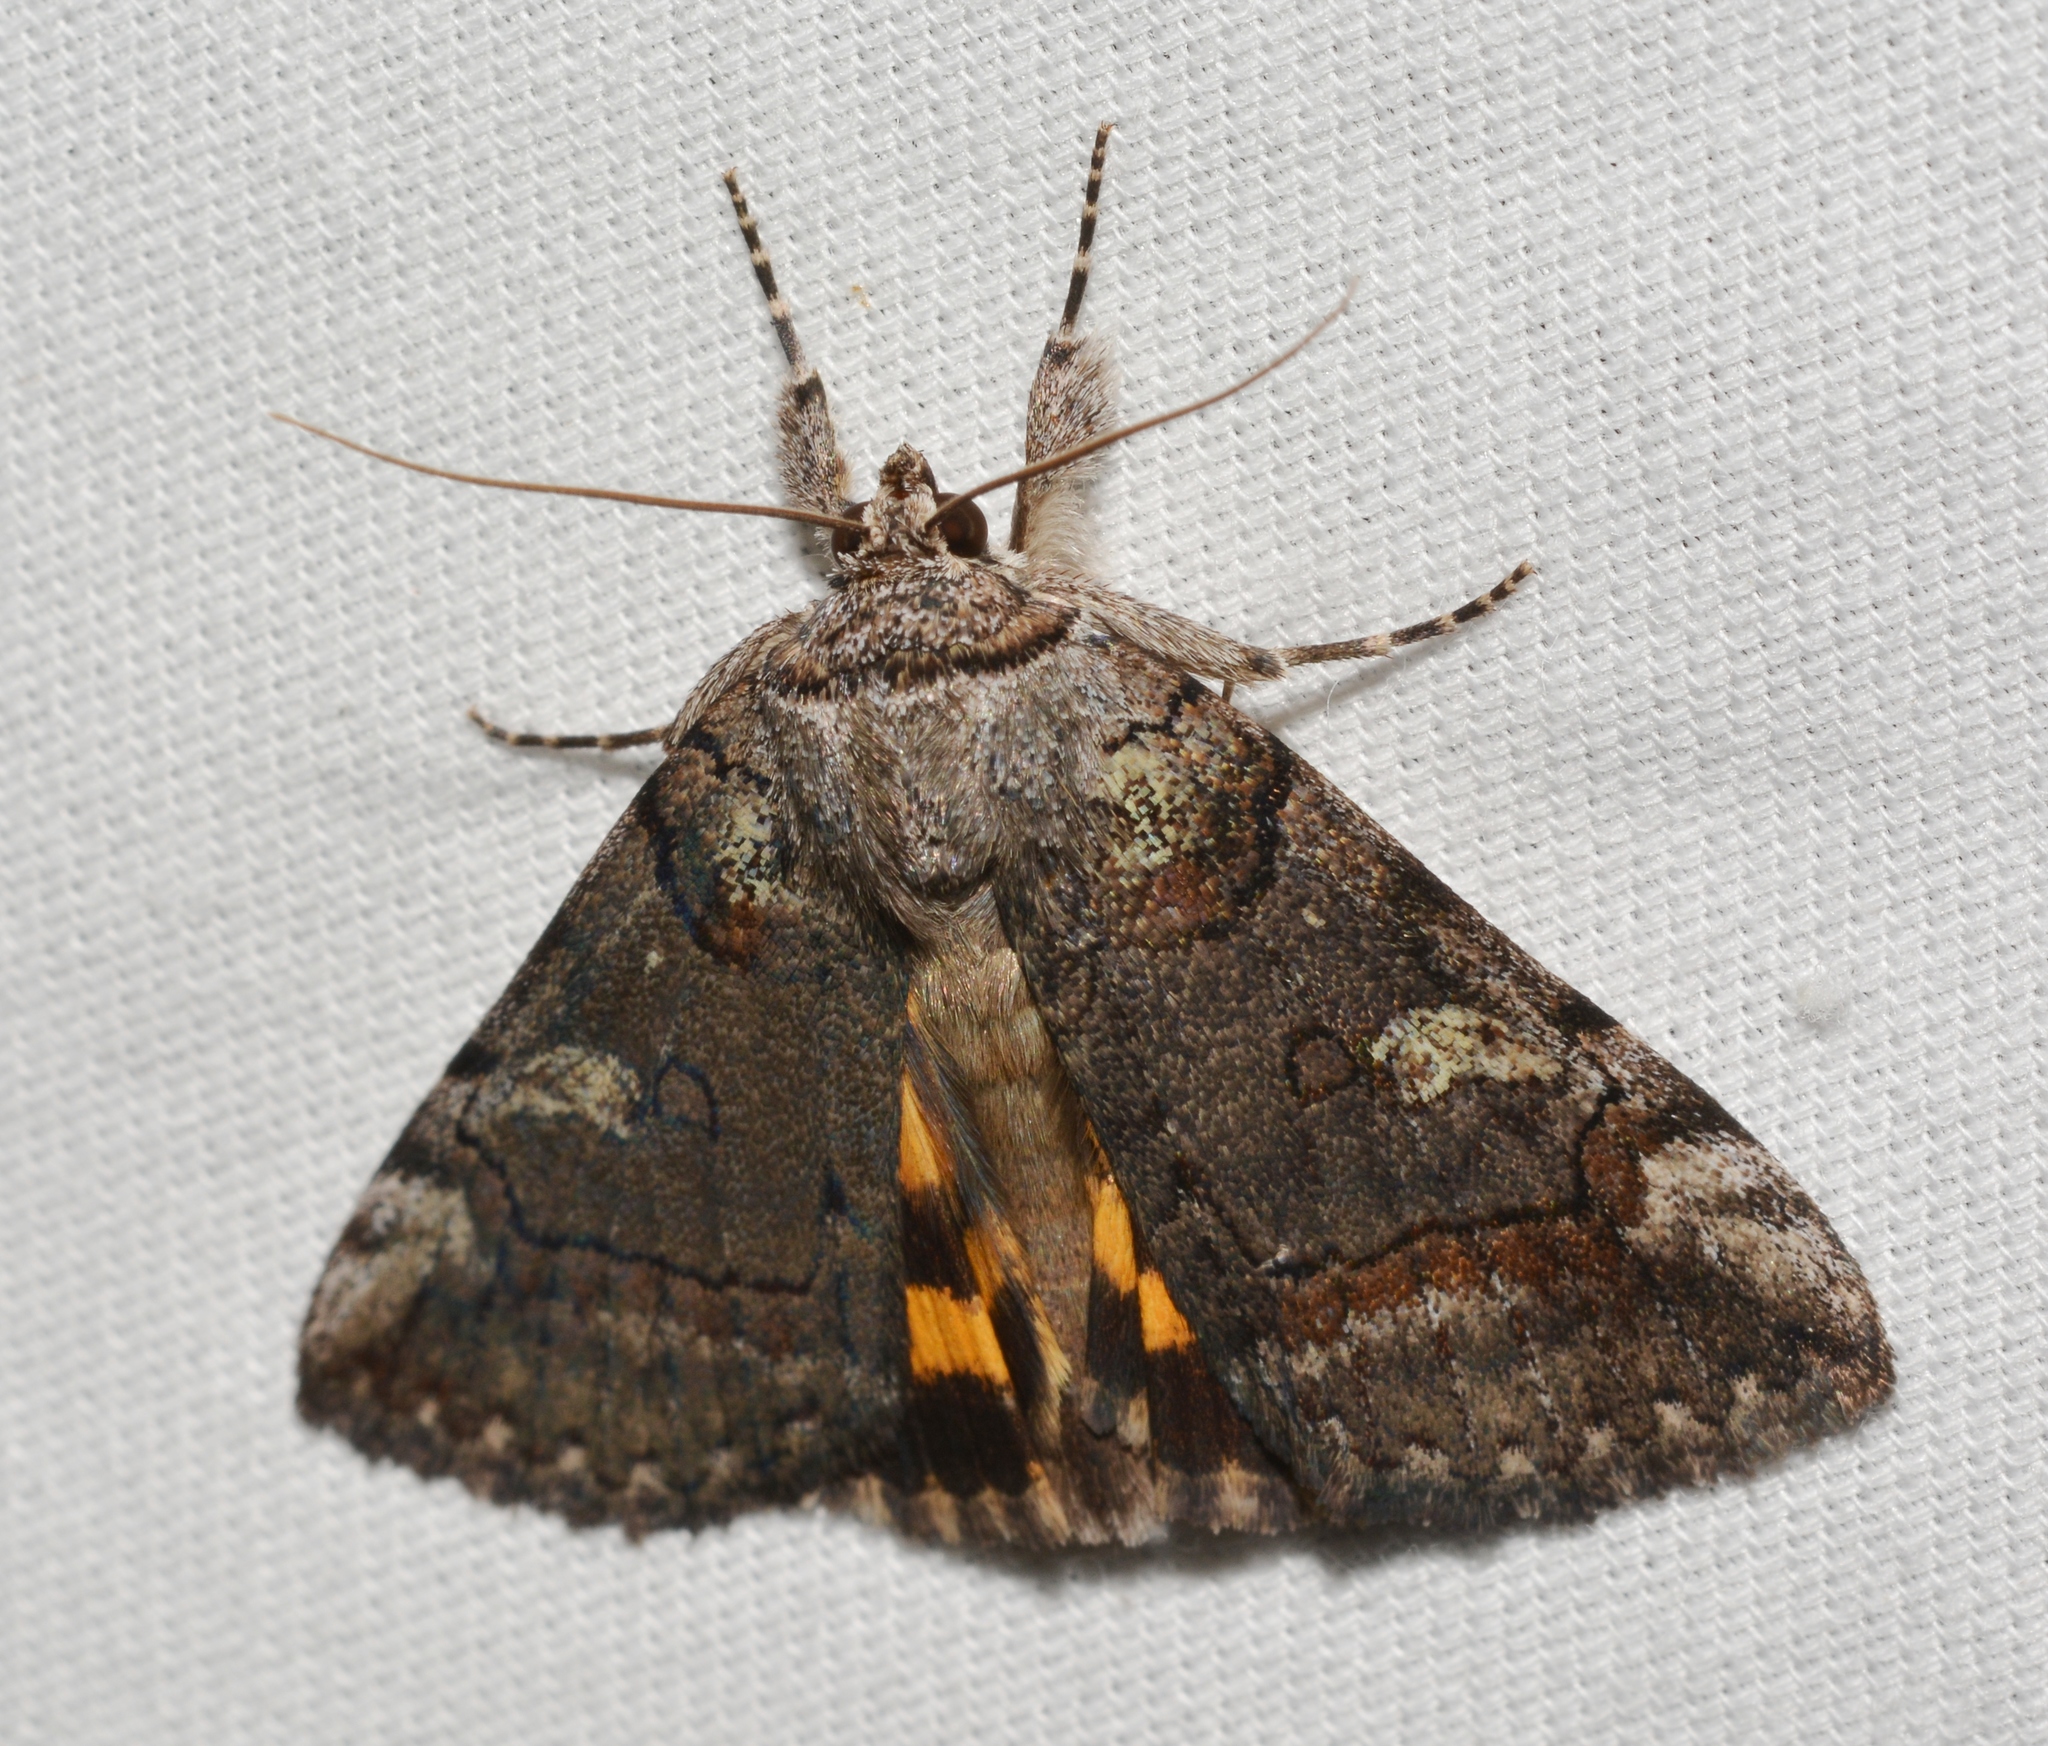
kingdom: Animalia
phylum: Arthropoda
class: Insecta
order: Lepidoptera
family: Erebidae
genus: Catocala
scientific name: Catocala similis
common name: Similar underwing
